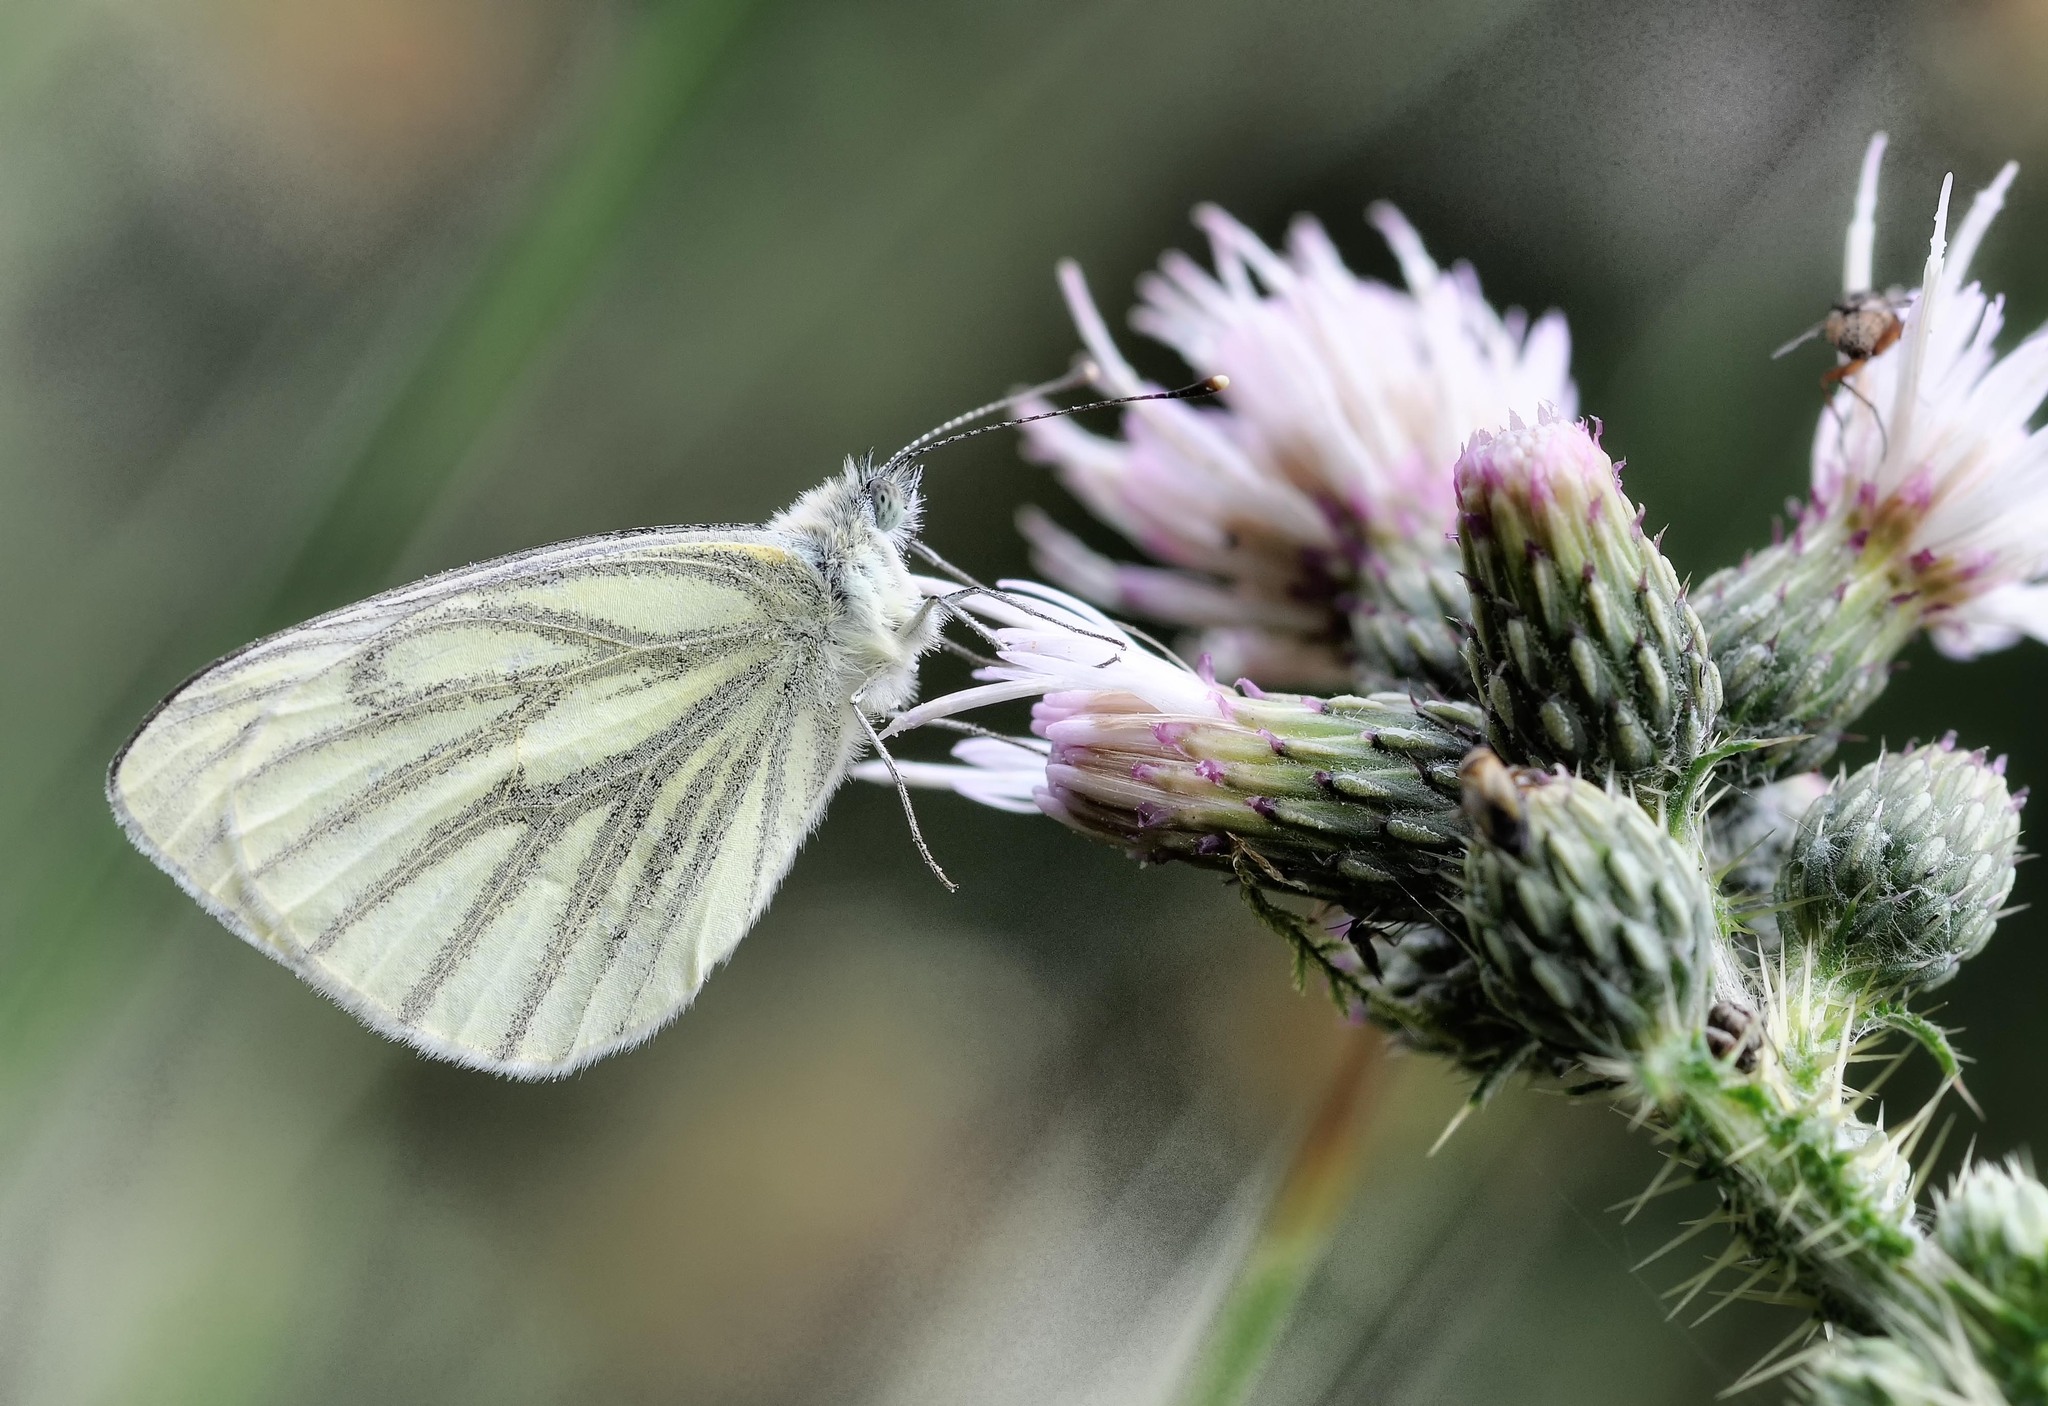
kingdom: Animalia
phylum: Arthropoda
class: Insecta
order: Lepidoptera
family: Pieridae
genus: Pieris
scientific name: Pieris napi
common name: Green-veined white
